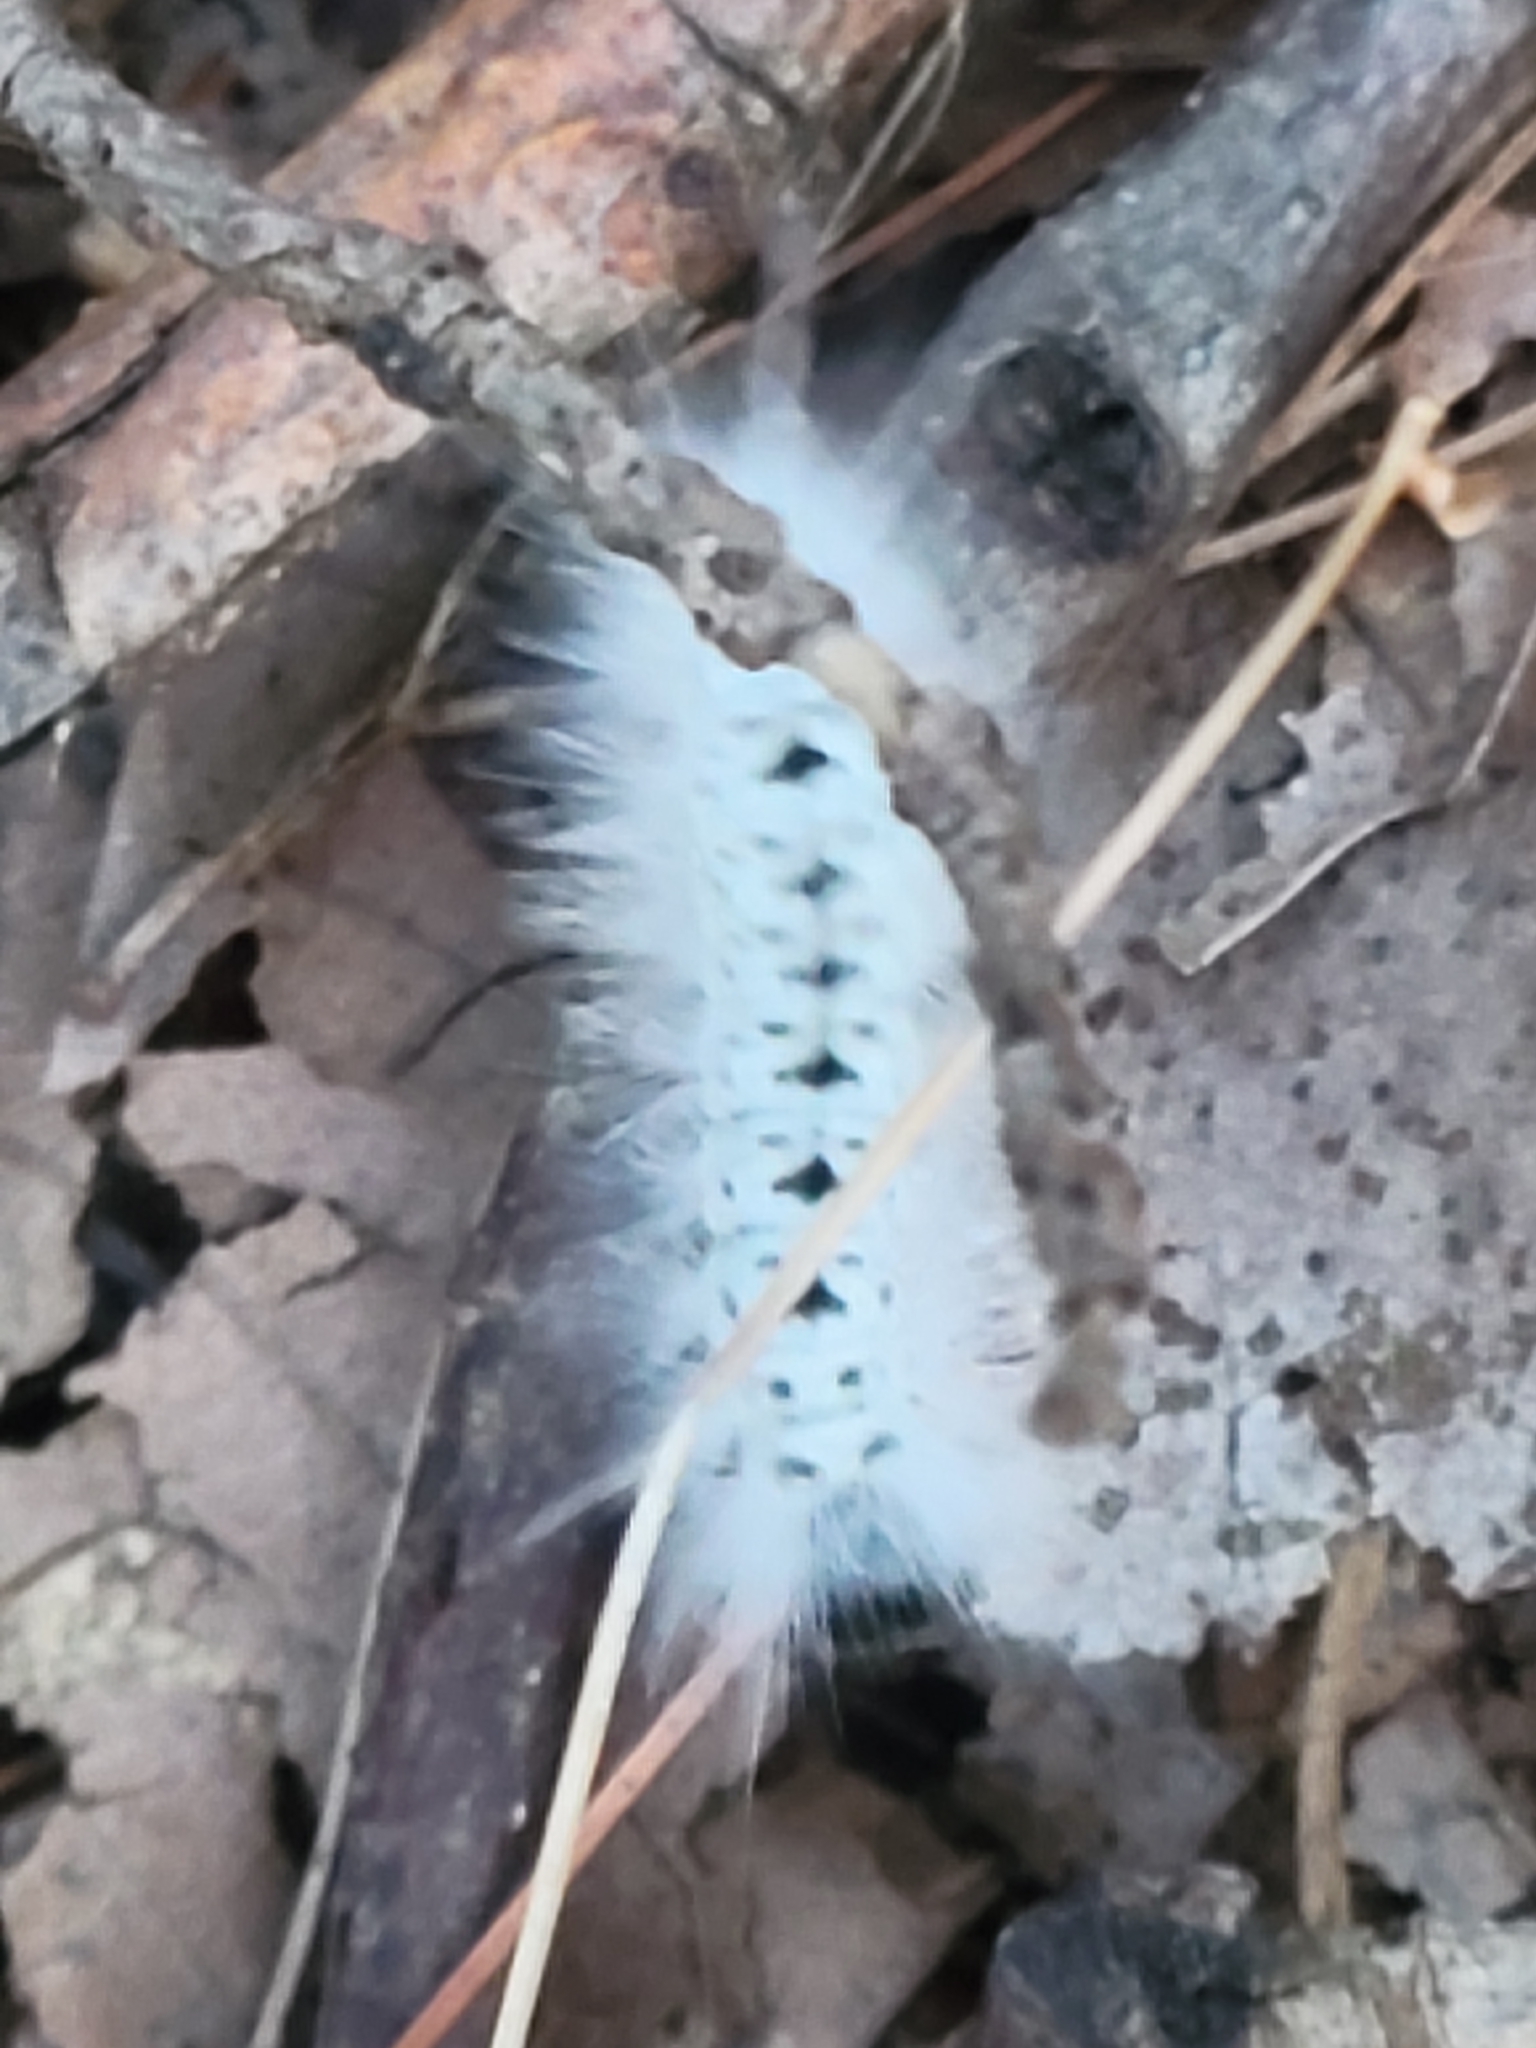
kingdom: Animalia
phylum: Arthropoda
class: Insecta
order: Lepidoptera
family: Erebidae
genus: Lophocampa
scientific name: Lophocampa caryae
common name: Hickory tussock moth
